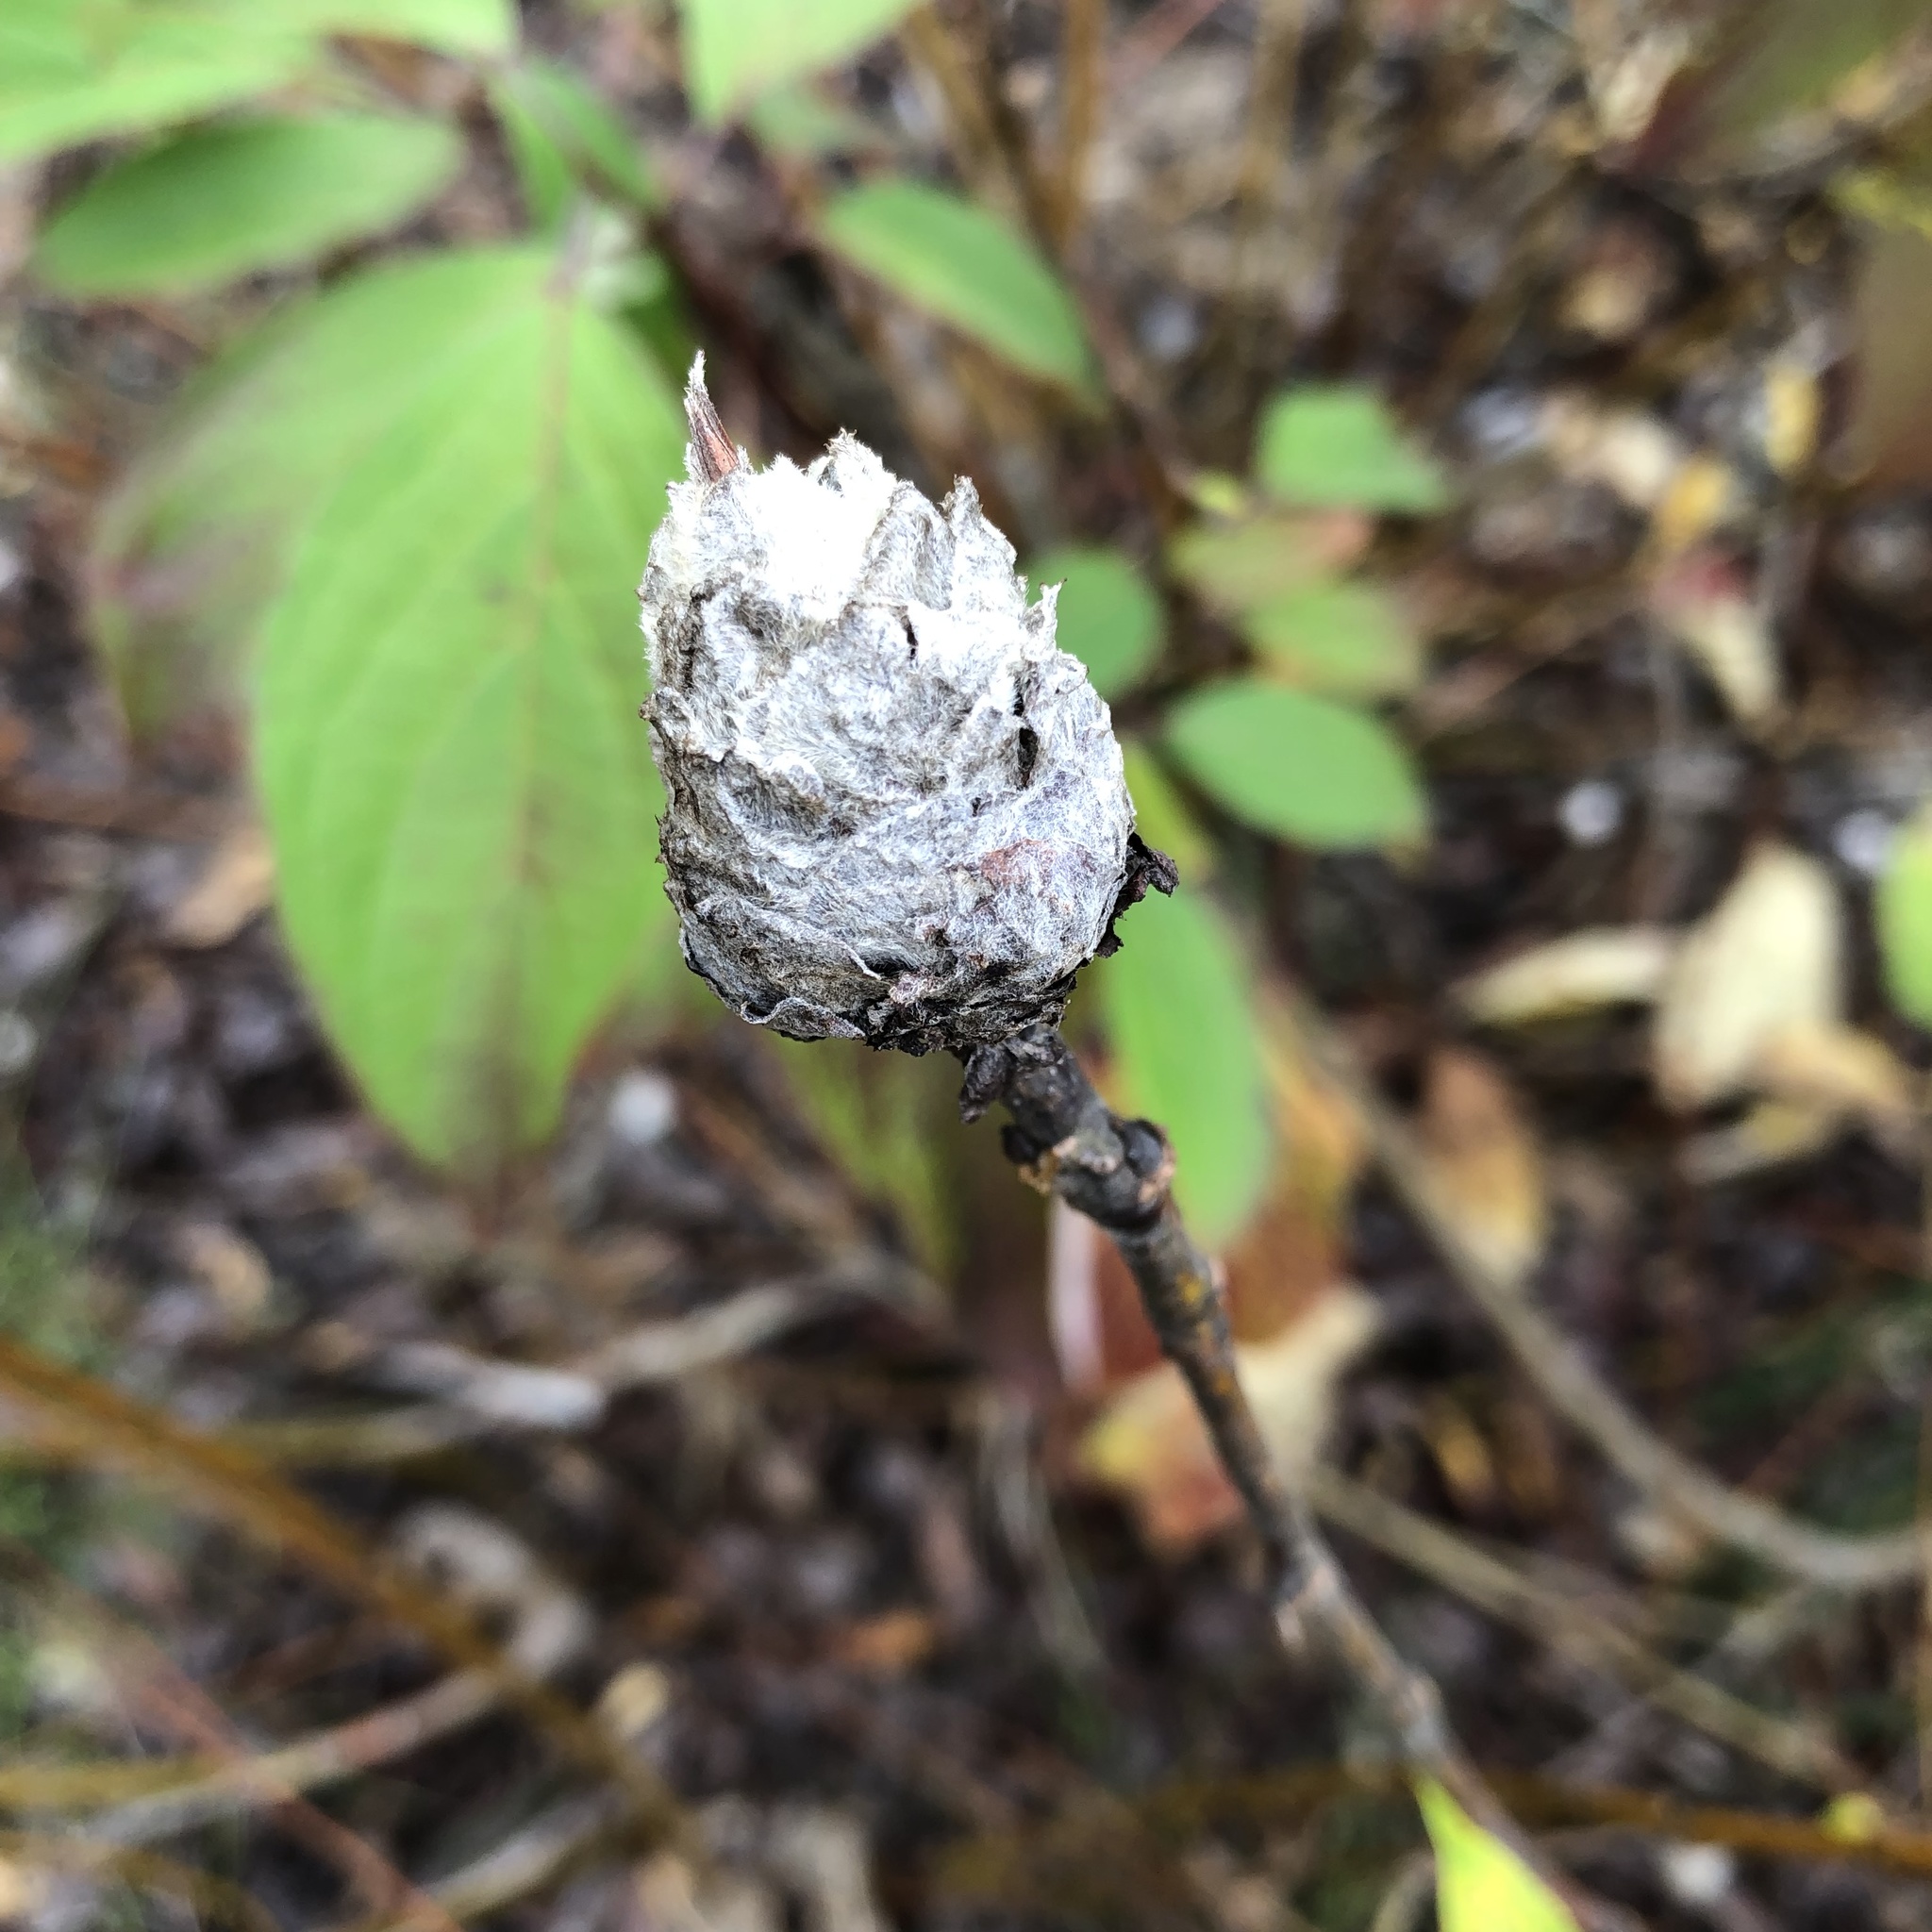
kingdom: Animalia
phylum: Arthropoda
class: Insecta
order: Diptera
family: Cecidomyiidae
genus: Rabdophaga
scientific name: Rabdophaga strobiloides
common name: Willow pinecone gall midge
